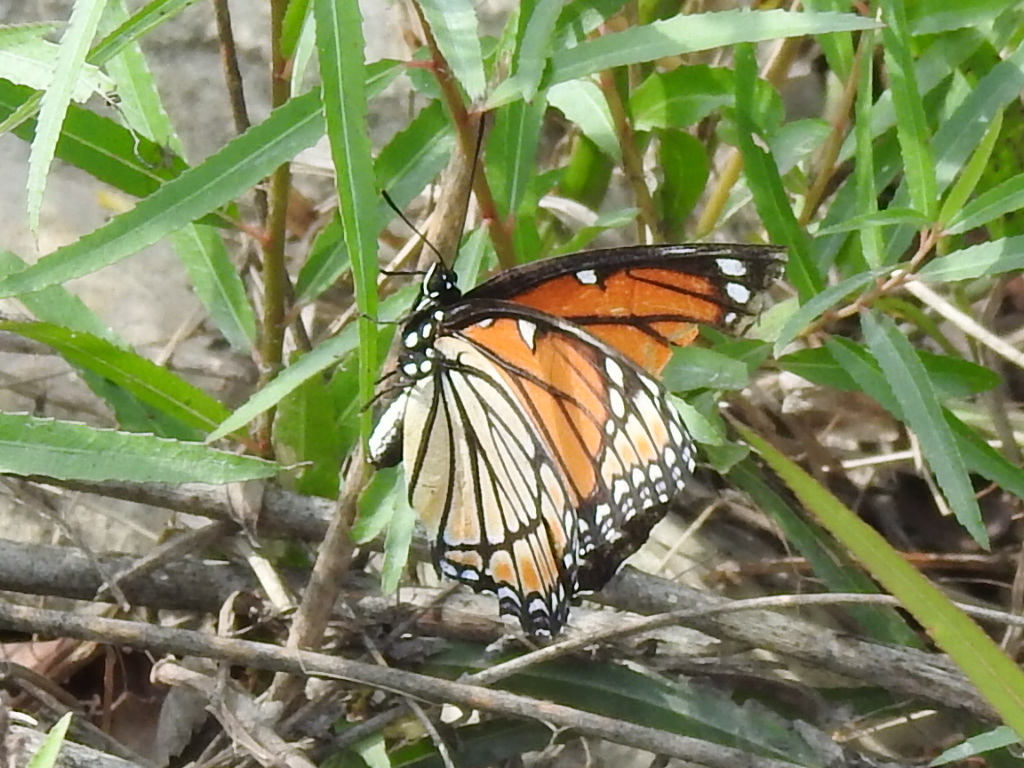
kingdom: Animalia
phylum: Arthropoda
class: Insecta
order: Lepidoptera
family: Nymphalidae
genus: Limenitis
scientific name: Limenitis archippus
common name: Viceroy
